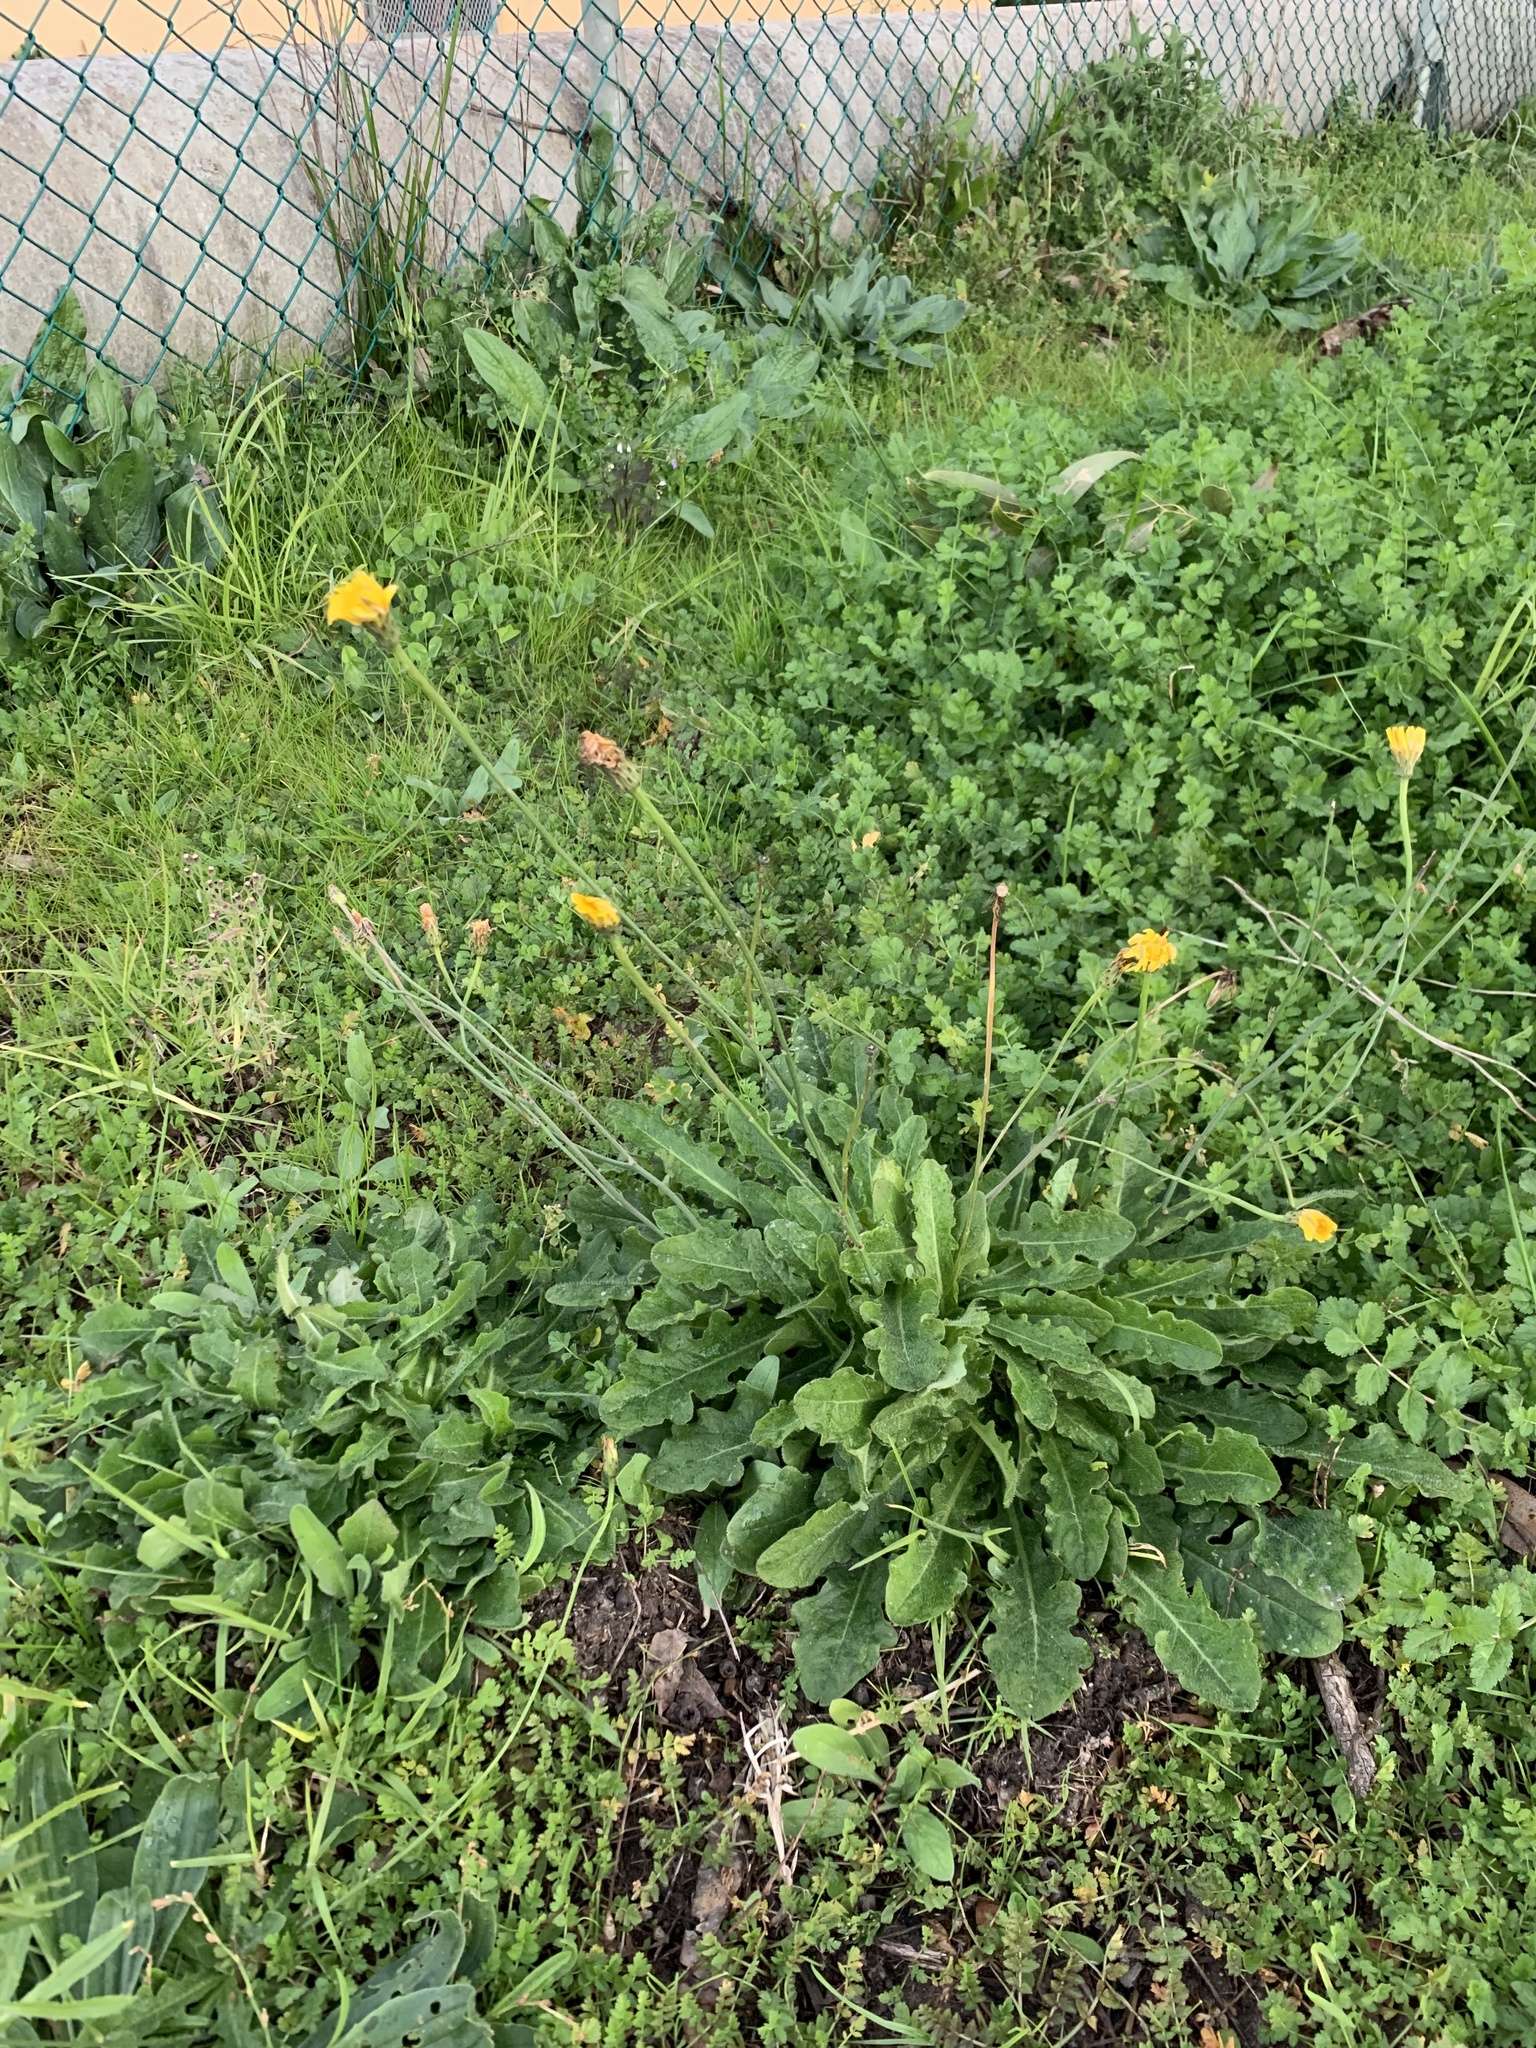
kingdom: Plantae
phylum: Tracheophyta
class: Magnoliopsida
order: Asterales
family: Asteraceae
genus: Hypochaeris
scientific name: Hypochaeris radicata
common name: Flatweed
